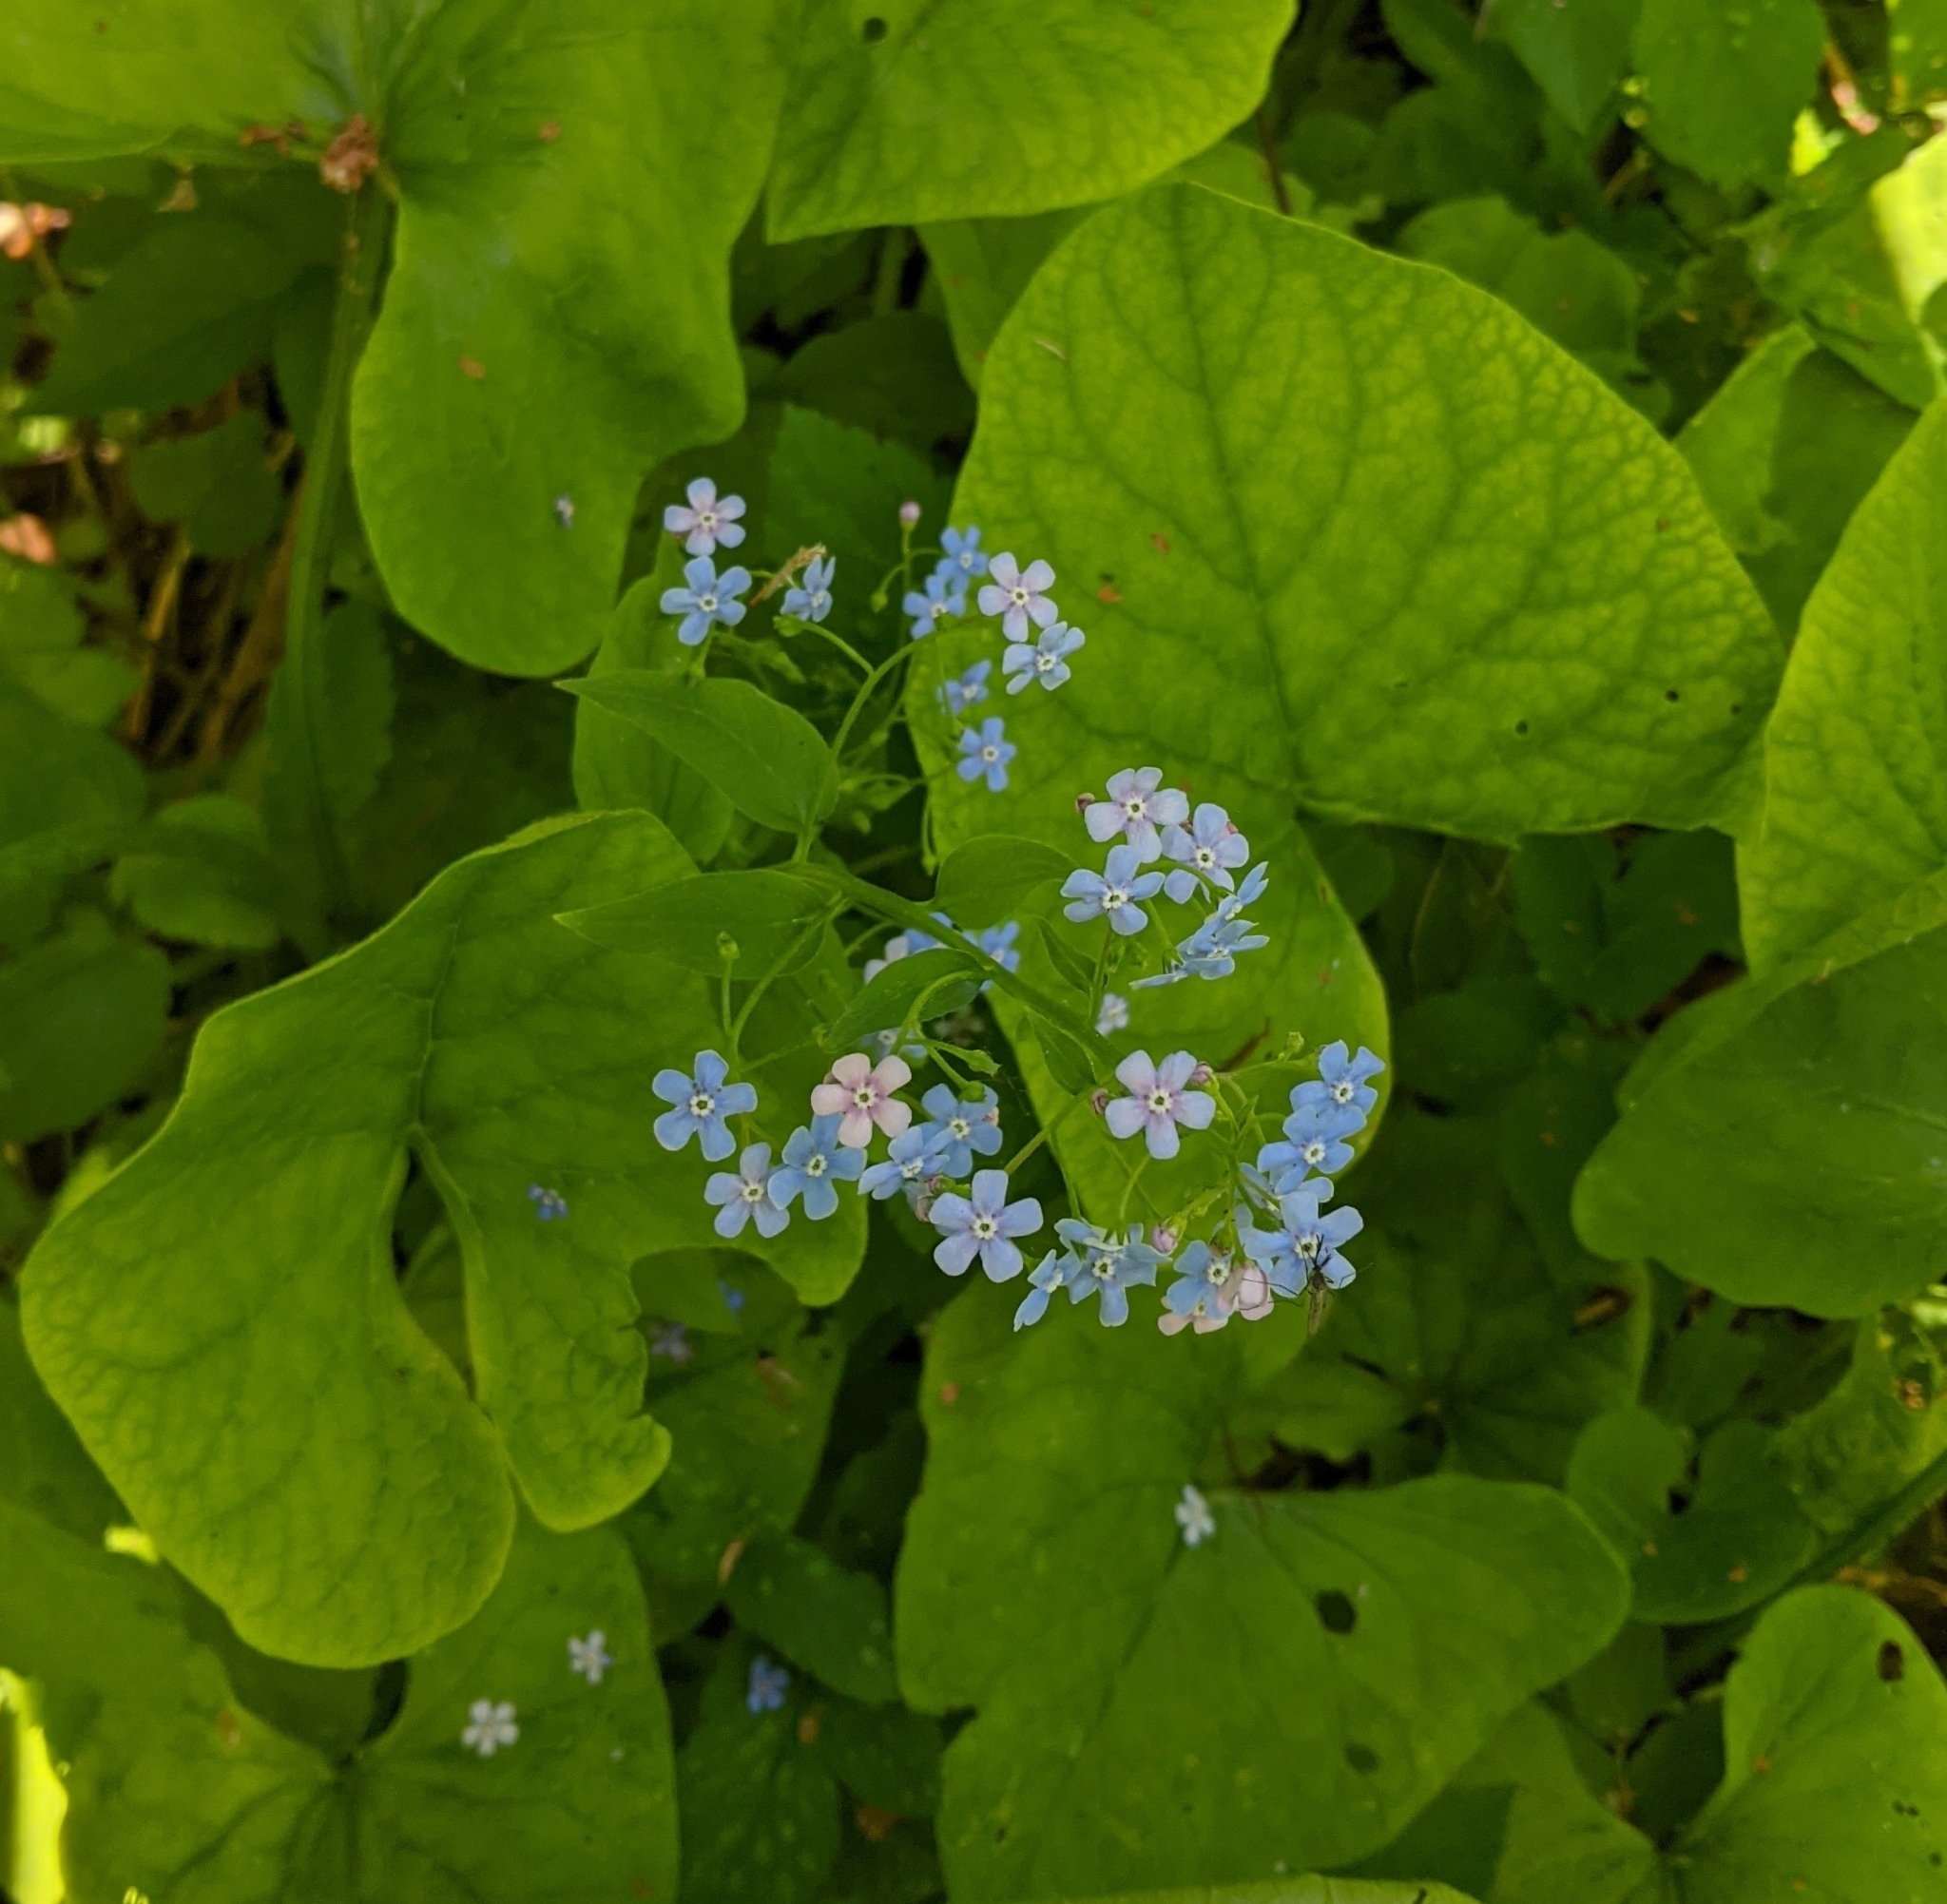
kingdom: Plantae
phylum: Tracheophyta
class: Magnoliopsida
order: Boraginales
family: Boraginaceae
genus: Brunnera
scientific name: Brunnera sibirica
